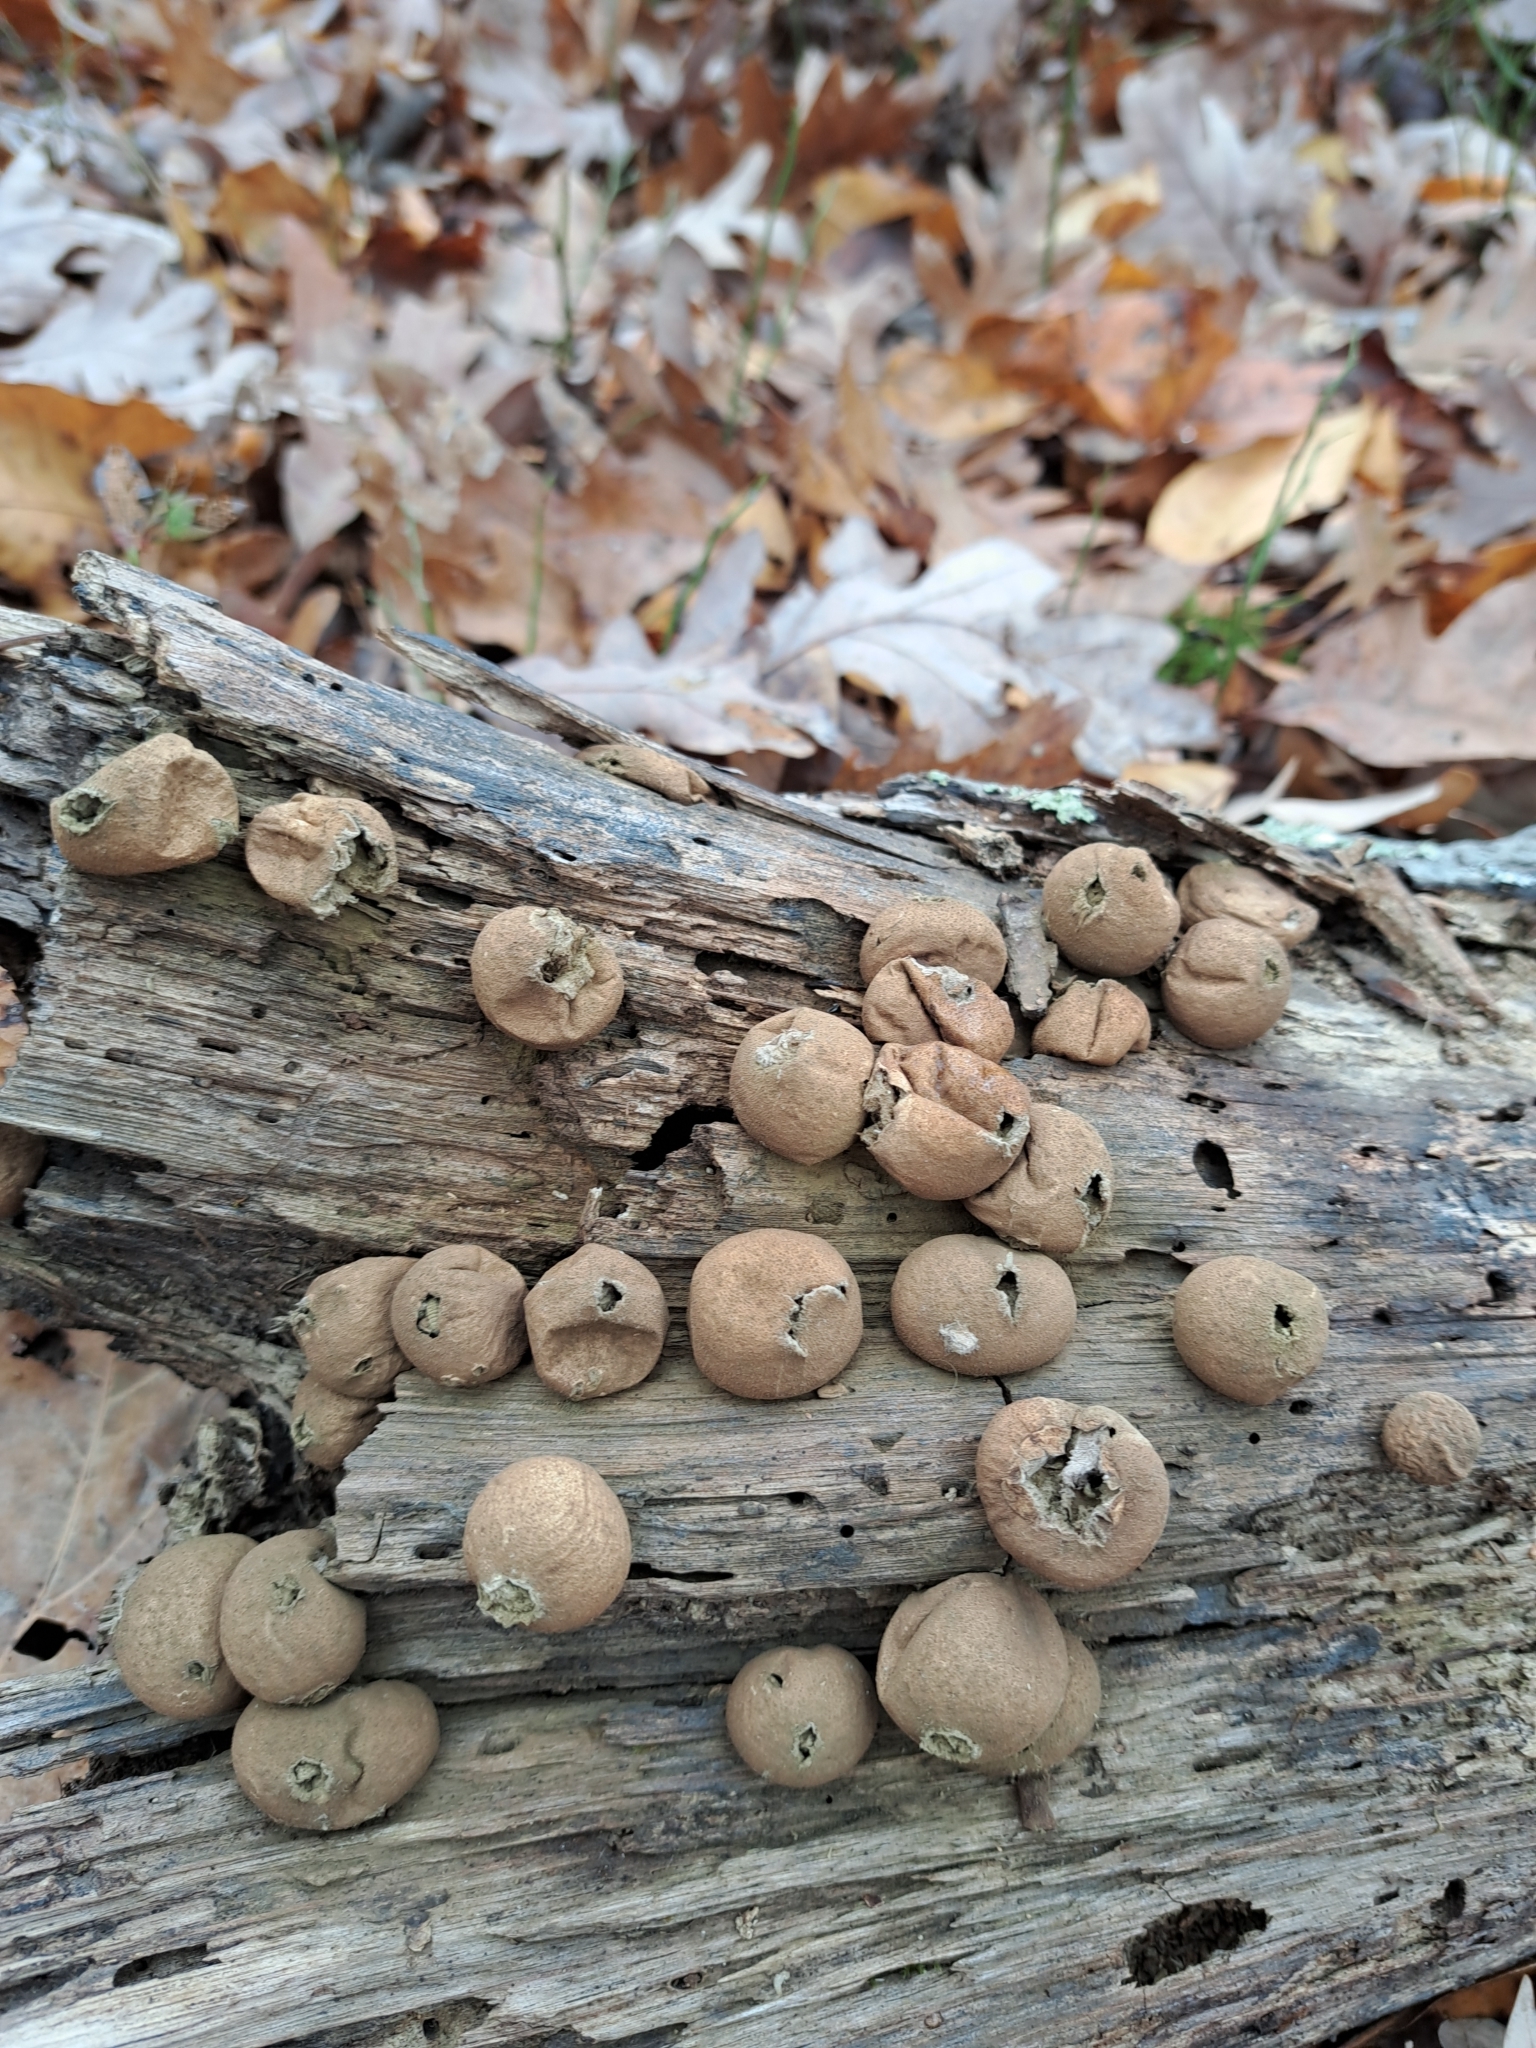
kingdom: Fungi
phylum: Basidiomycota
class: Agaricomycetes
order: Agaricales
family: Lycoperdaceae
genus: Apioperdon
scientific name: Apioperdon pyriforme
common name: Pear-shaped puffball
